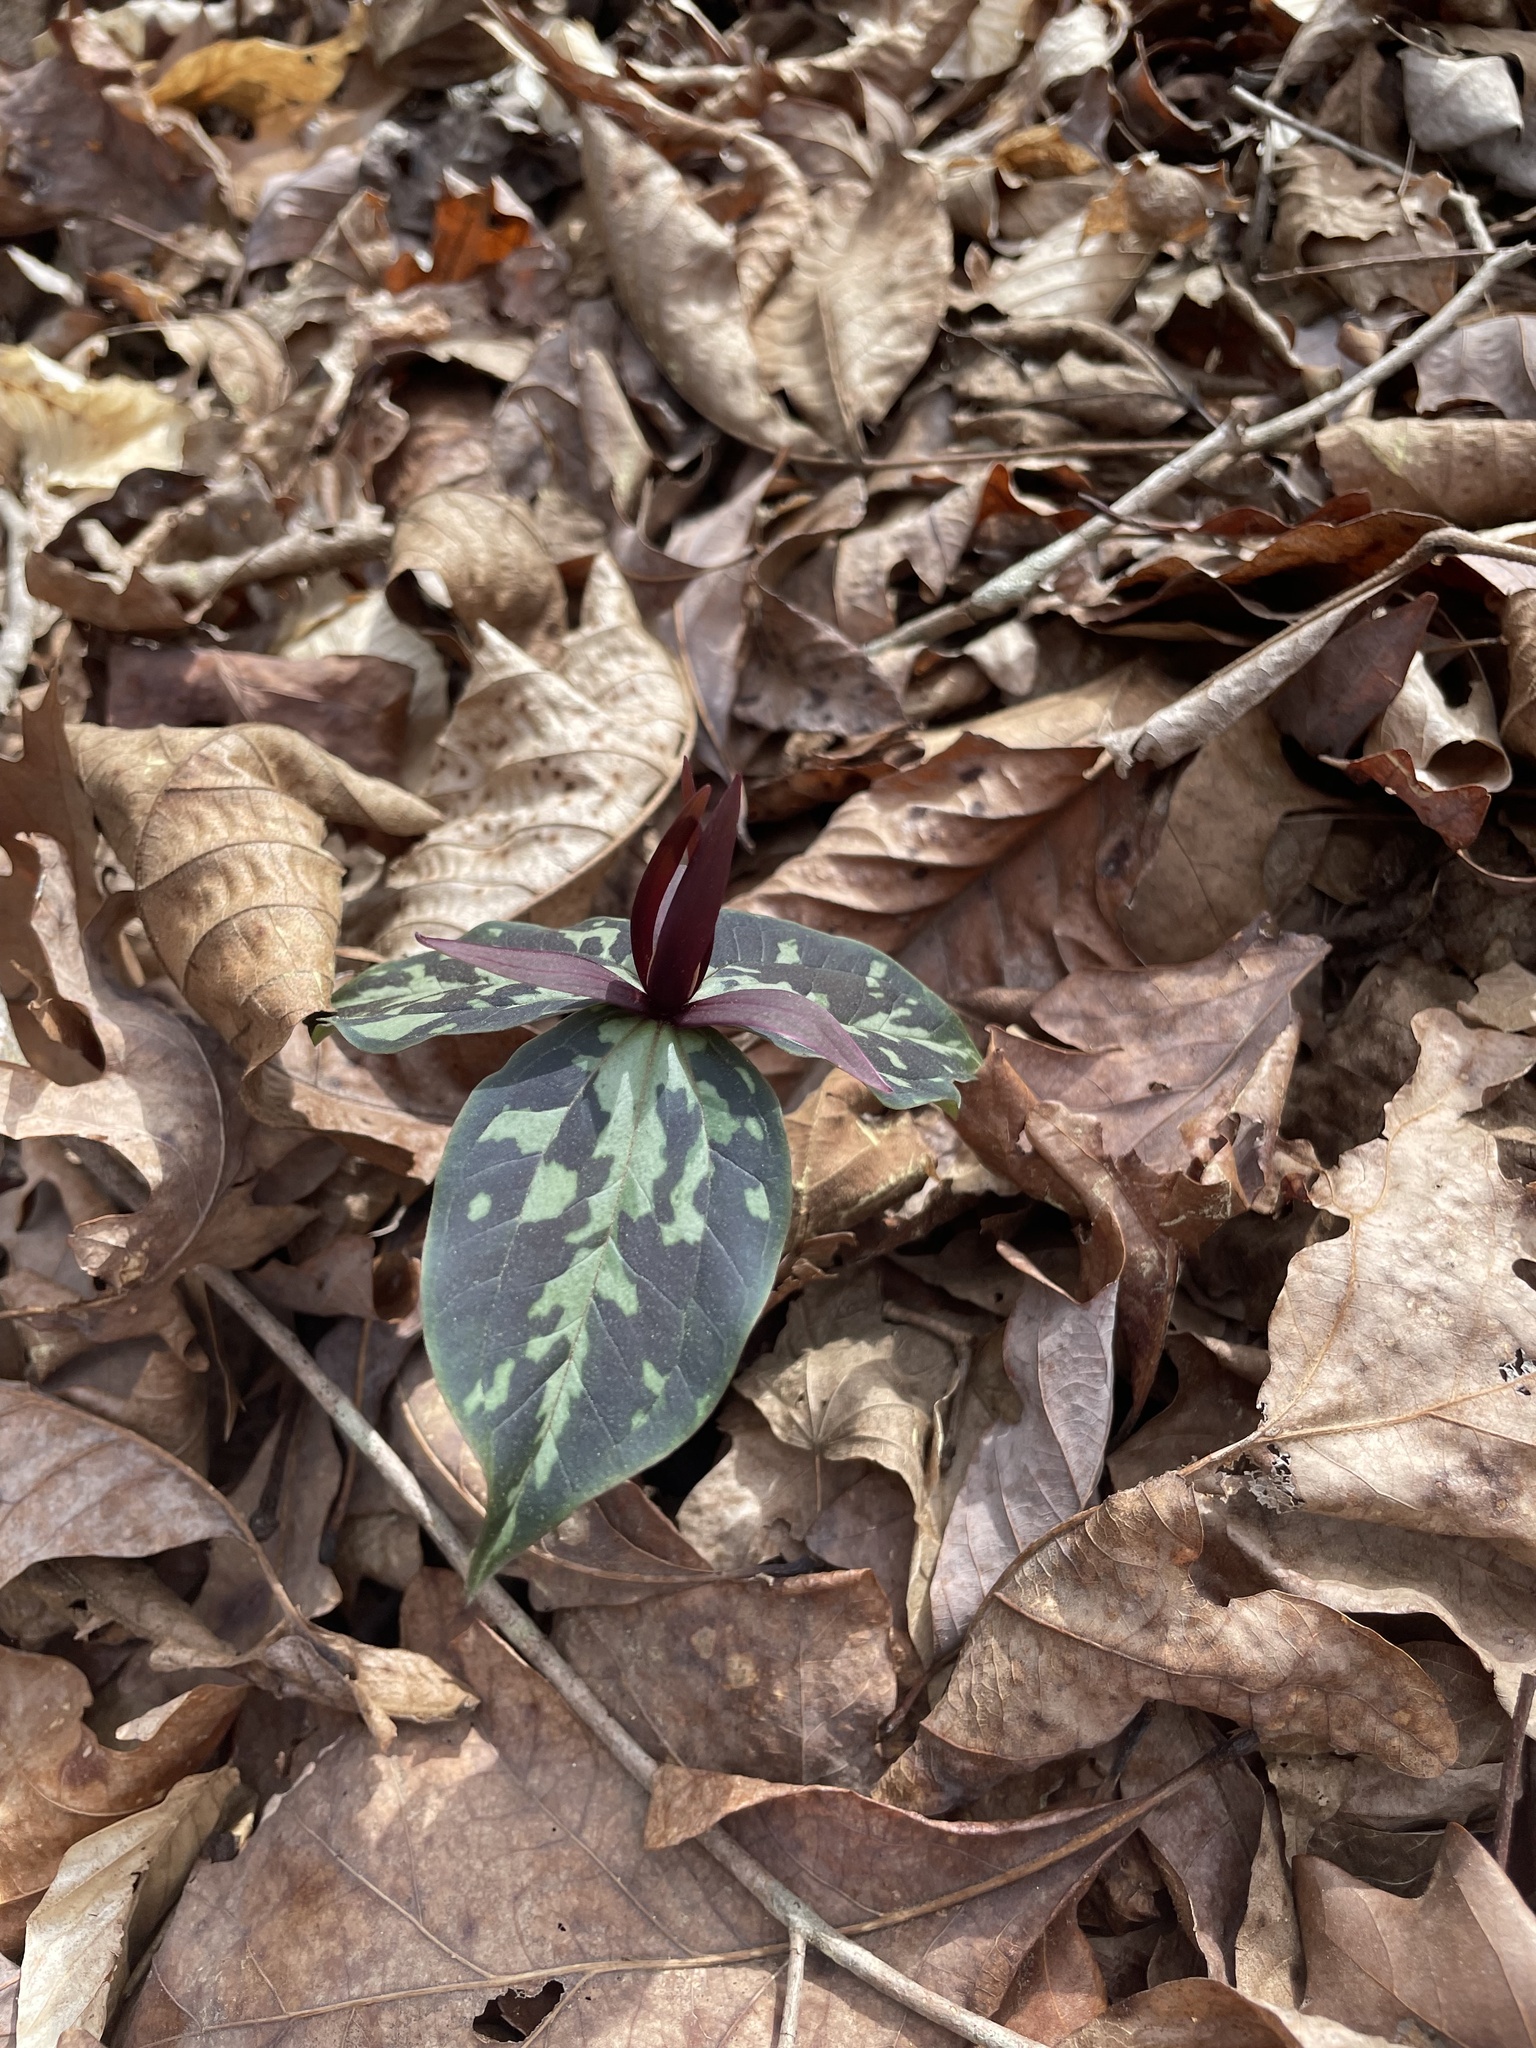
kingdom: Plantae
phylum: Tracheophyta
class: Liliopsida
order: Liliales
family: Melanthiaceae
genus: Trillium
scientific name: Trillium cuneatum
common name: Cuneate trillium
